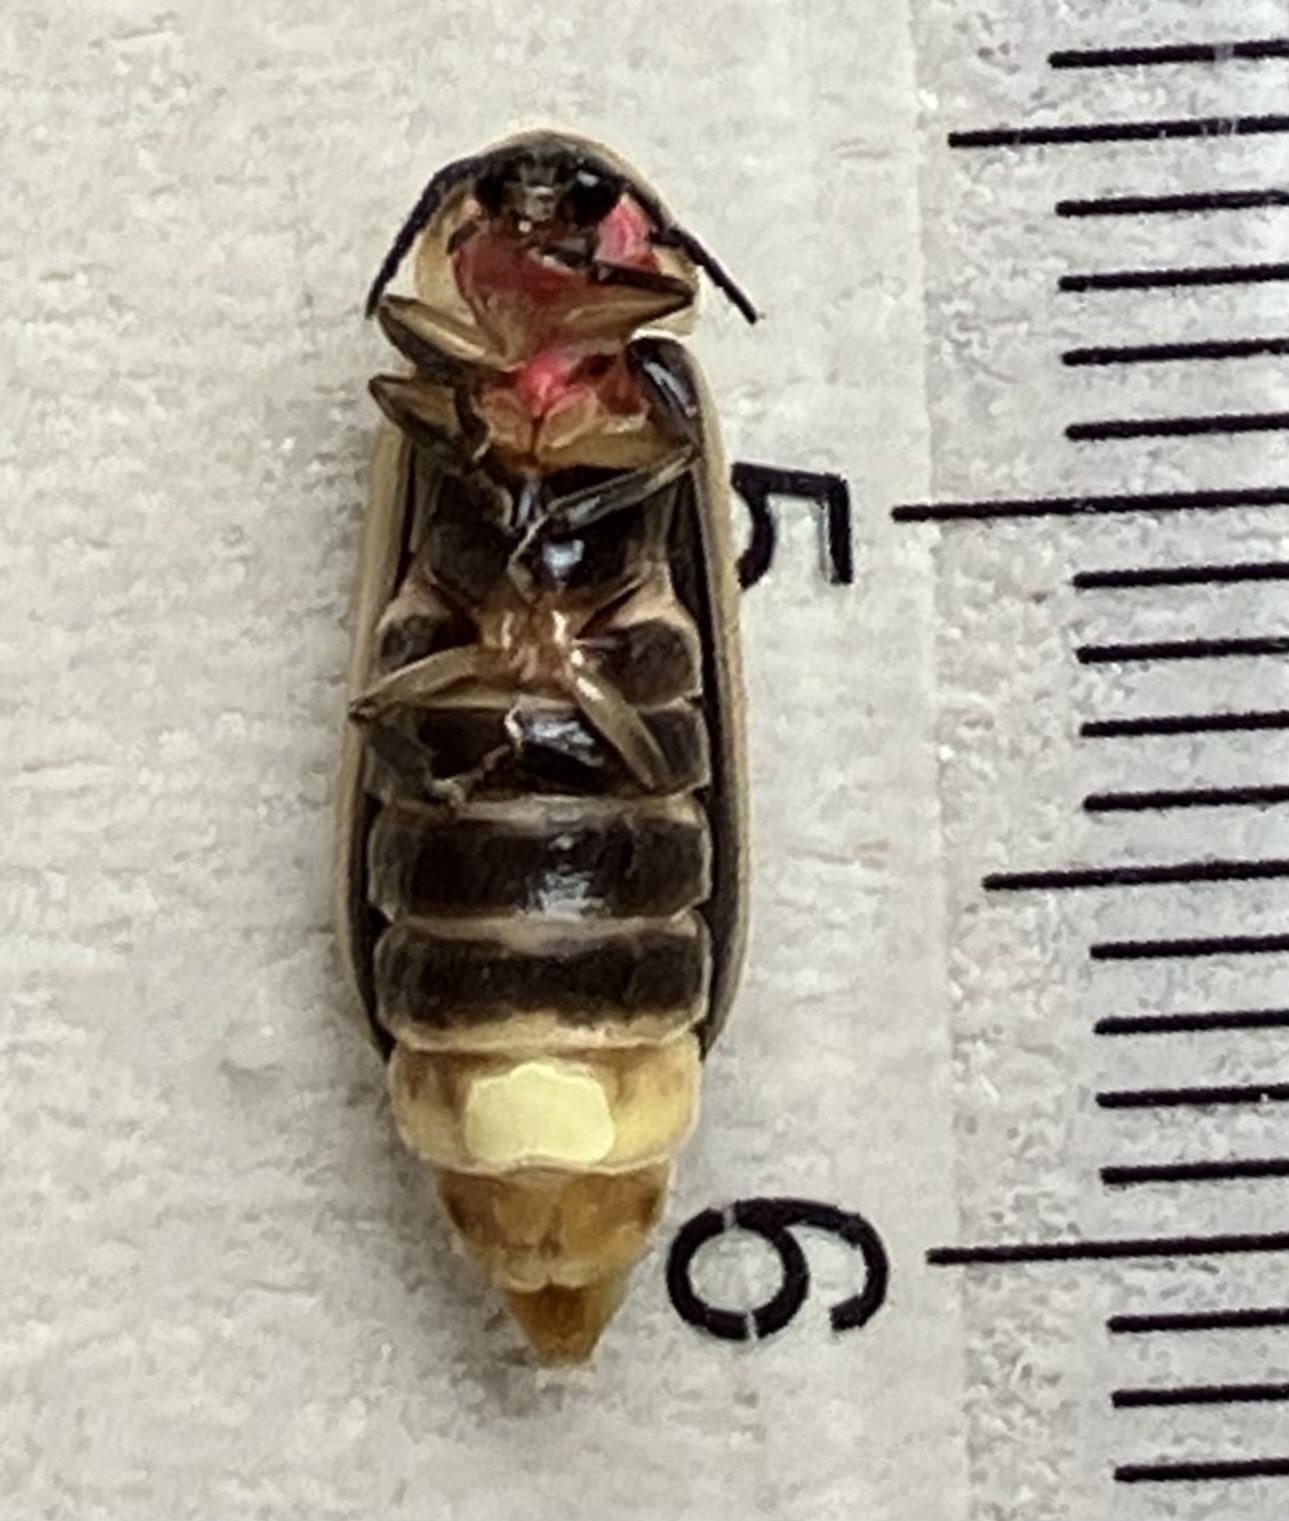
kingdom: Animalia
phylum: Arthropoda
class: Insecta
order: Coleoptera
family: Lampyridae
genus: Photinus
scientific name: Photinus pyralis
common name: Big dipper firefly
